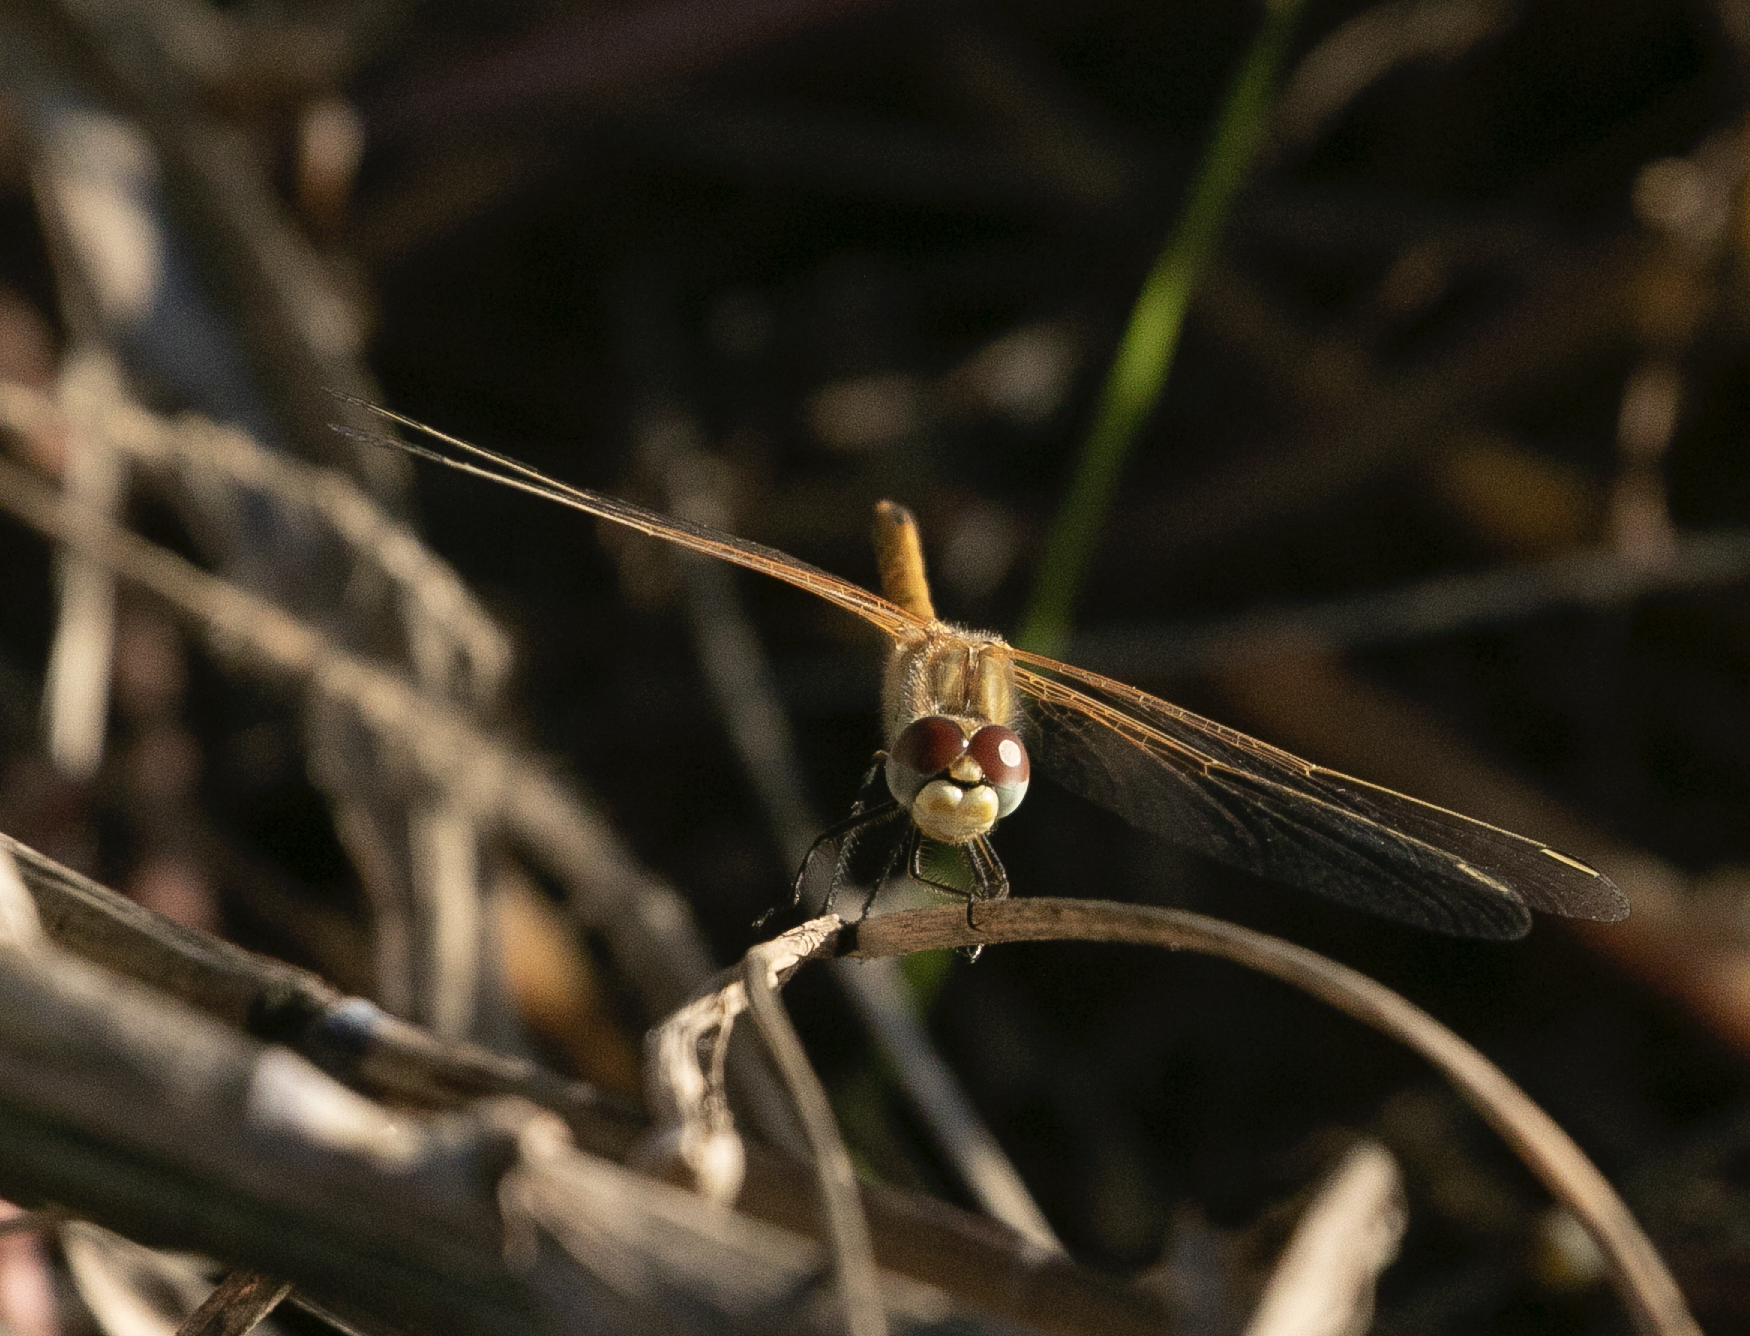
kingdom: Animalia
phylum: Arthropoda
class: Insecta
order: Odonata
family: Libellulidae
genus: Sympetrum
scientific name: Sympetrum fonscolombii
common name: Red-veined darter
